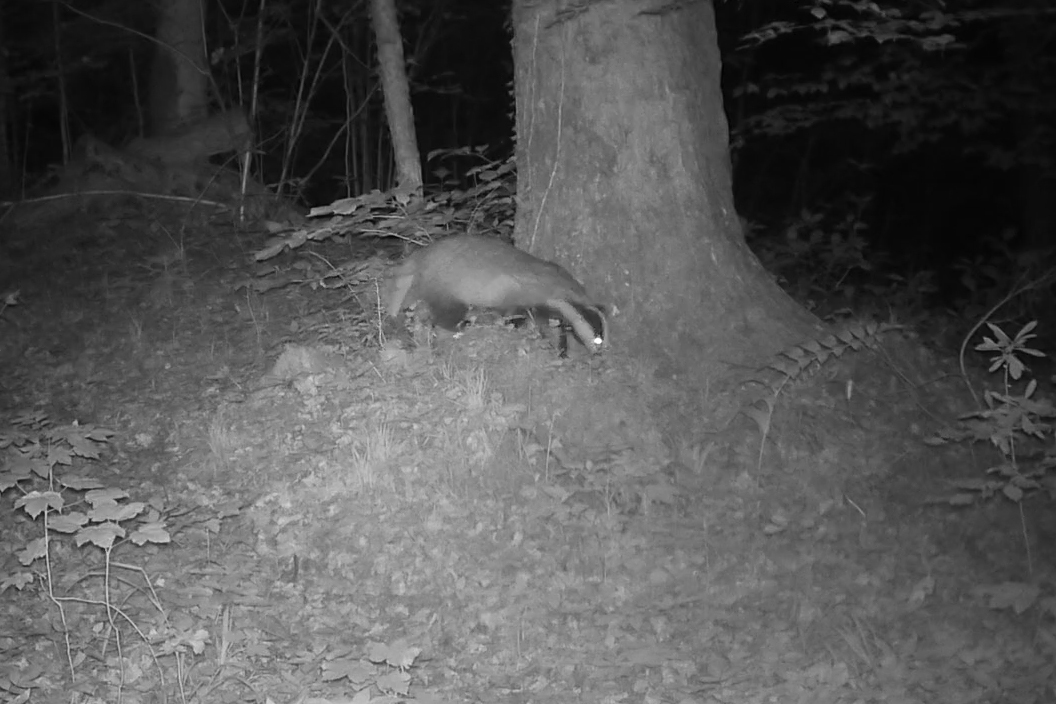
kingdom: Animalia
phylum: Chordata
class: Mammalia
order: Carnivora
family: Mustelidae
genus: Meles
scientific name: Meles meles
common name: Eurasian badger
